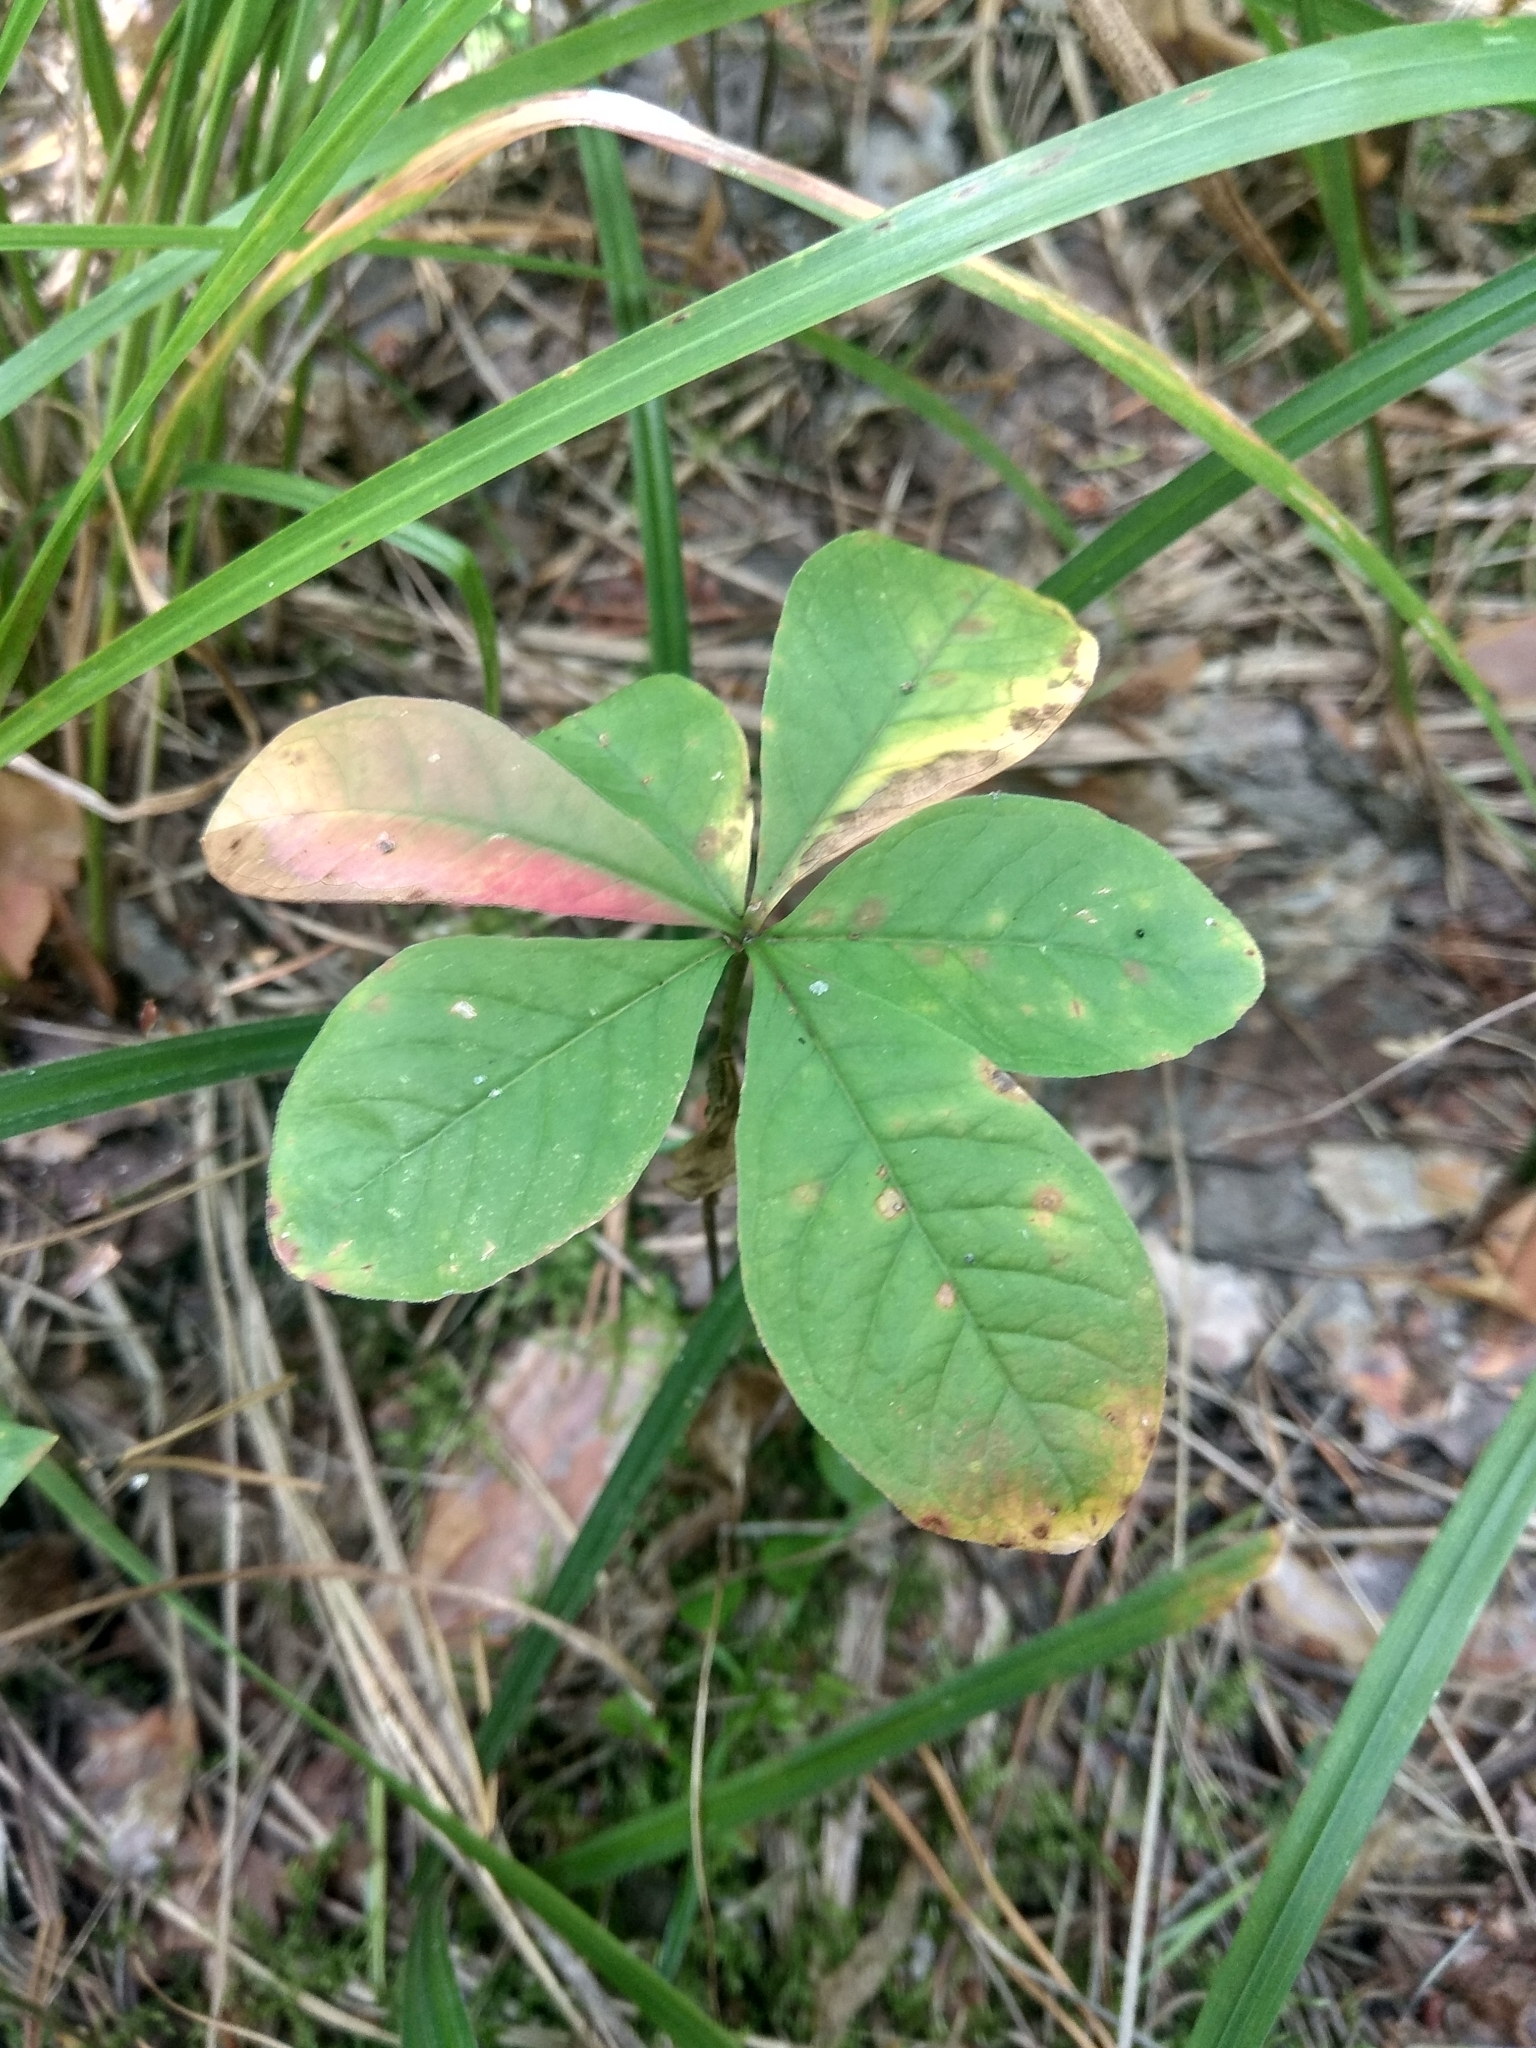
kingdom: Plantae
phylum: Tracheophyta
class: Magnoliopsida
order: Ericales
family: Primulaceae
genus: Lysimachia
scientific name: Lysimachia europaea
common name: Arctic starflower
